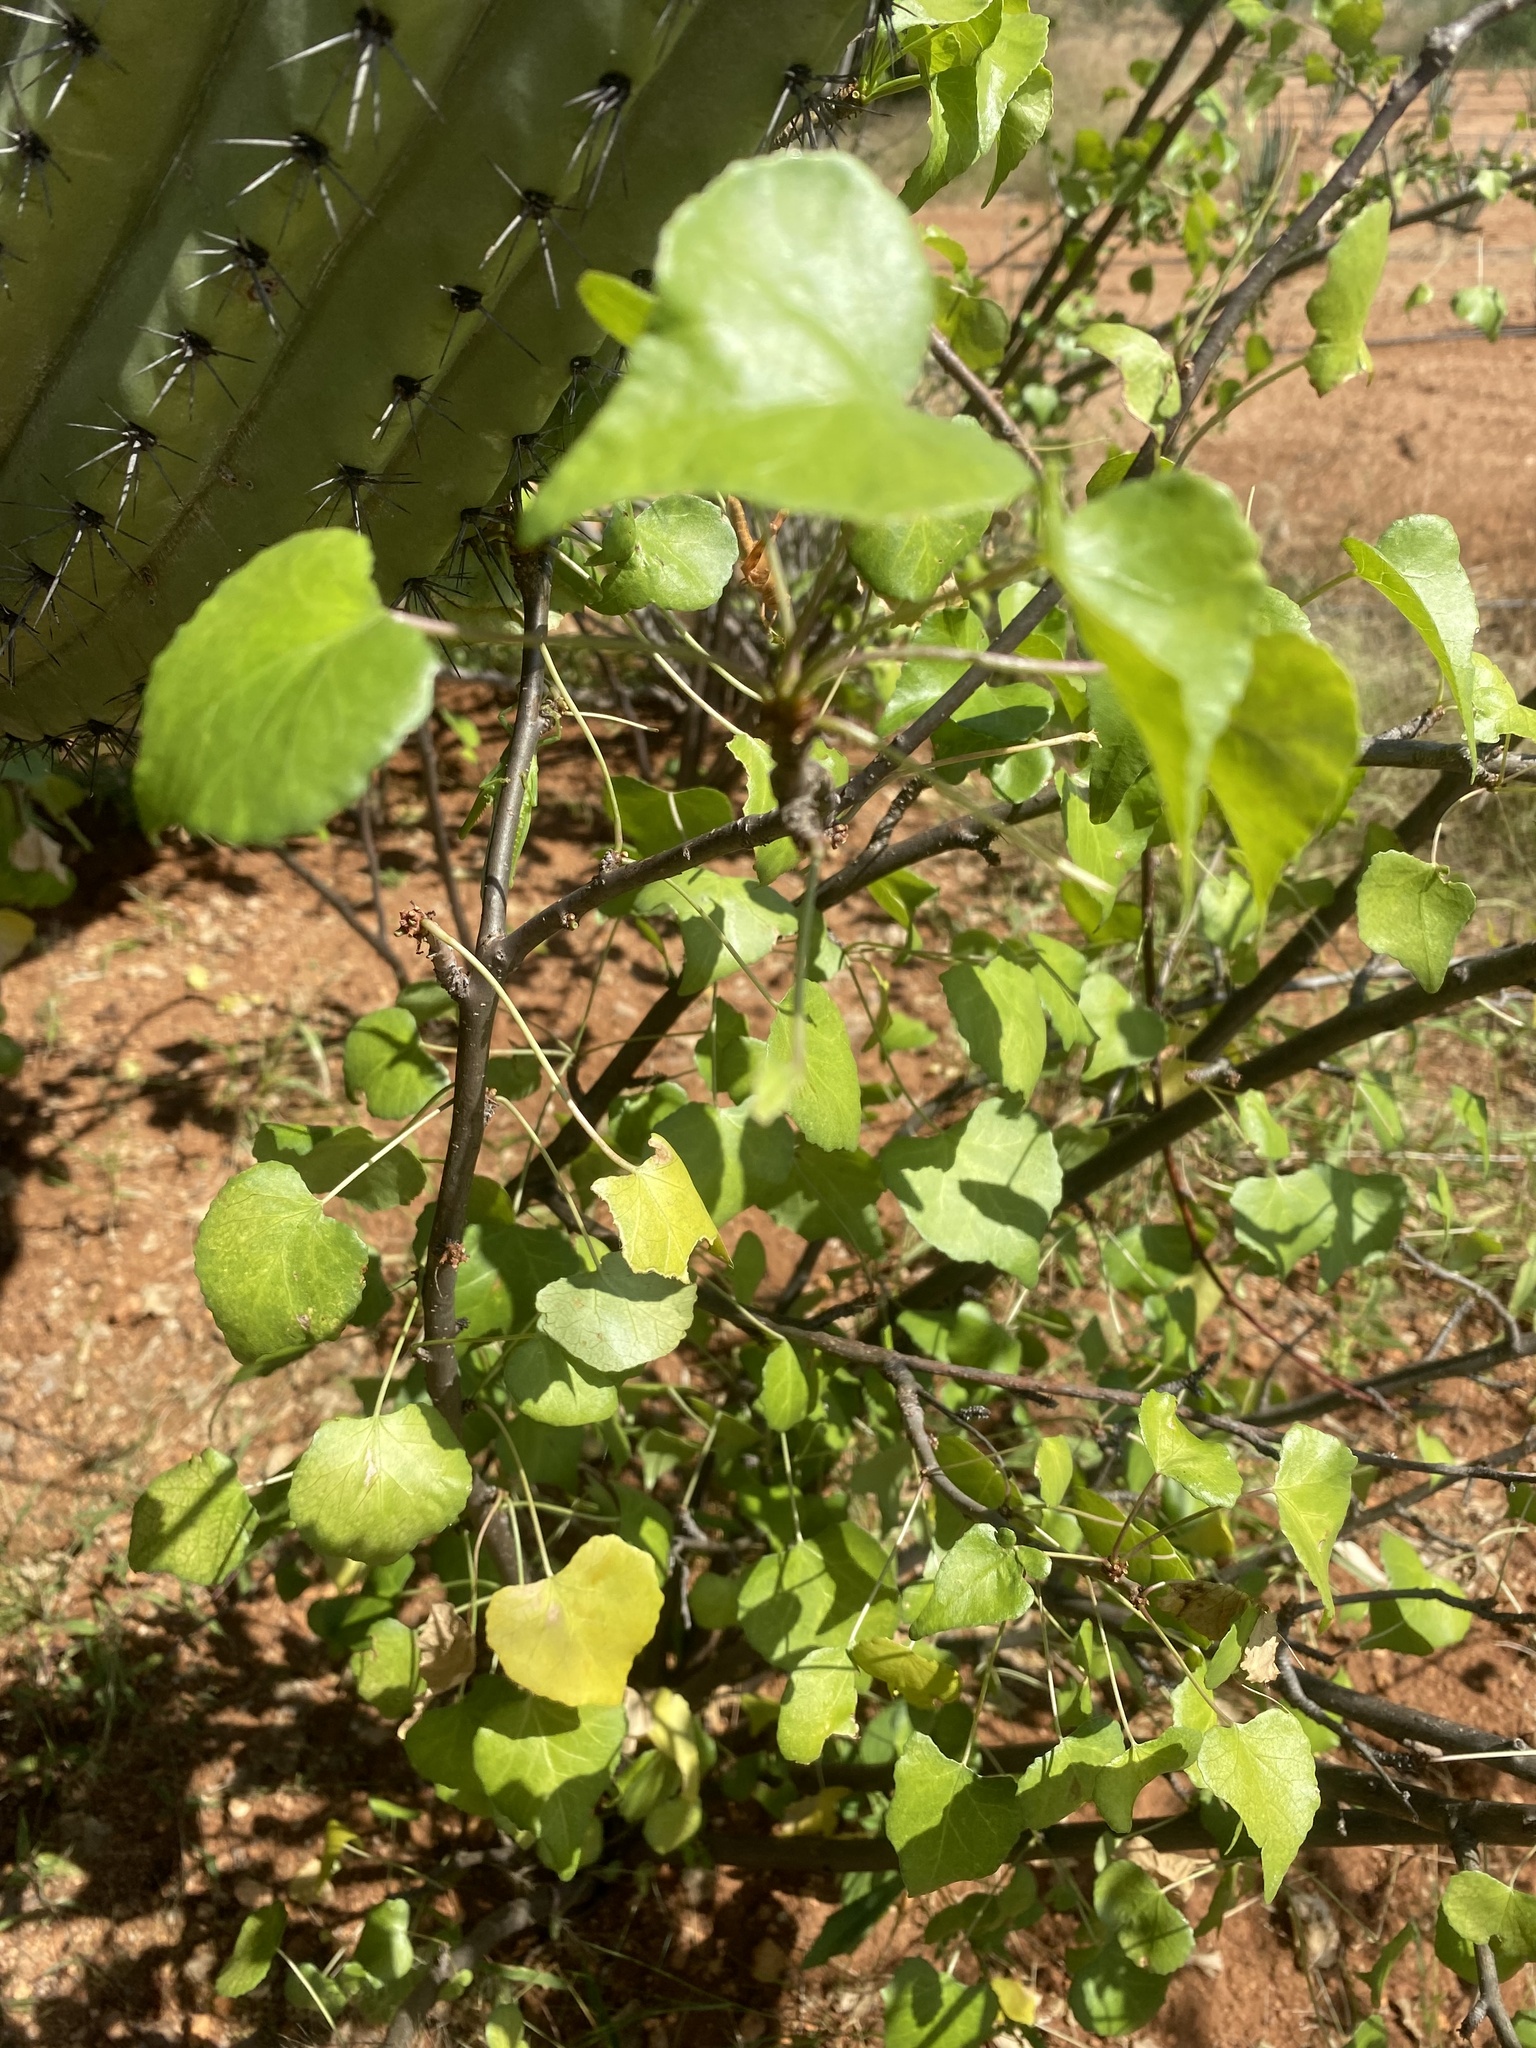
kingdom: Plantae
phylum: Tracheophyta
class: Magnoliopsida
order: Malpighiales
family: Euphorbiaceae
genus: Jatropha
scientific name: Jatropha cardiophylla
